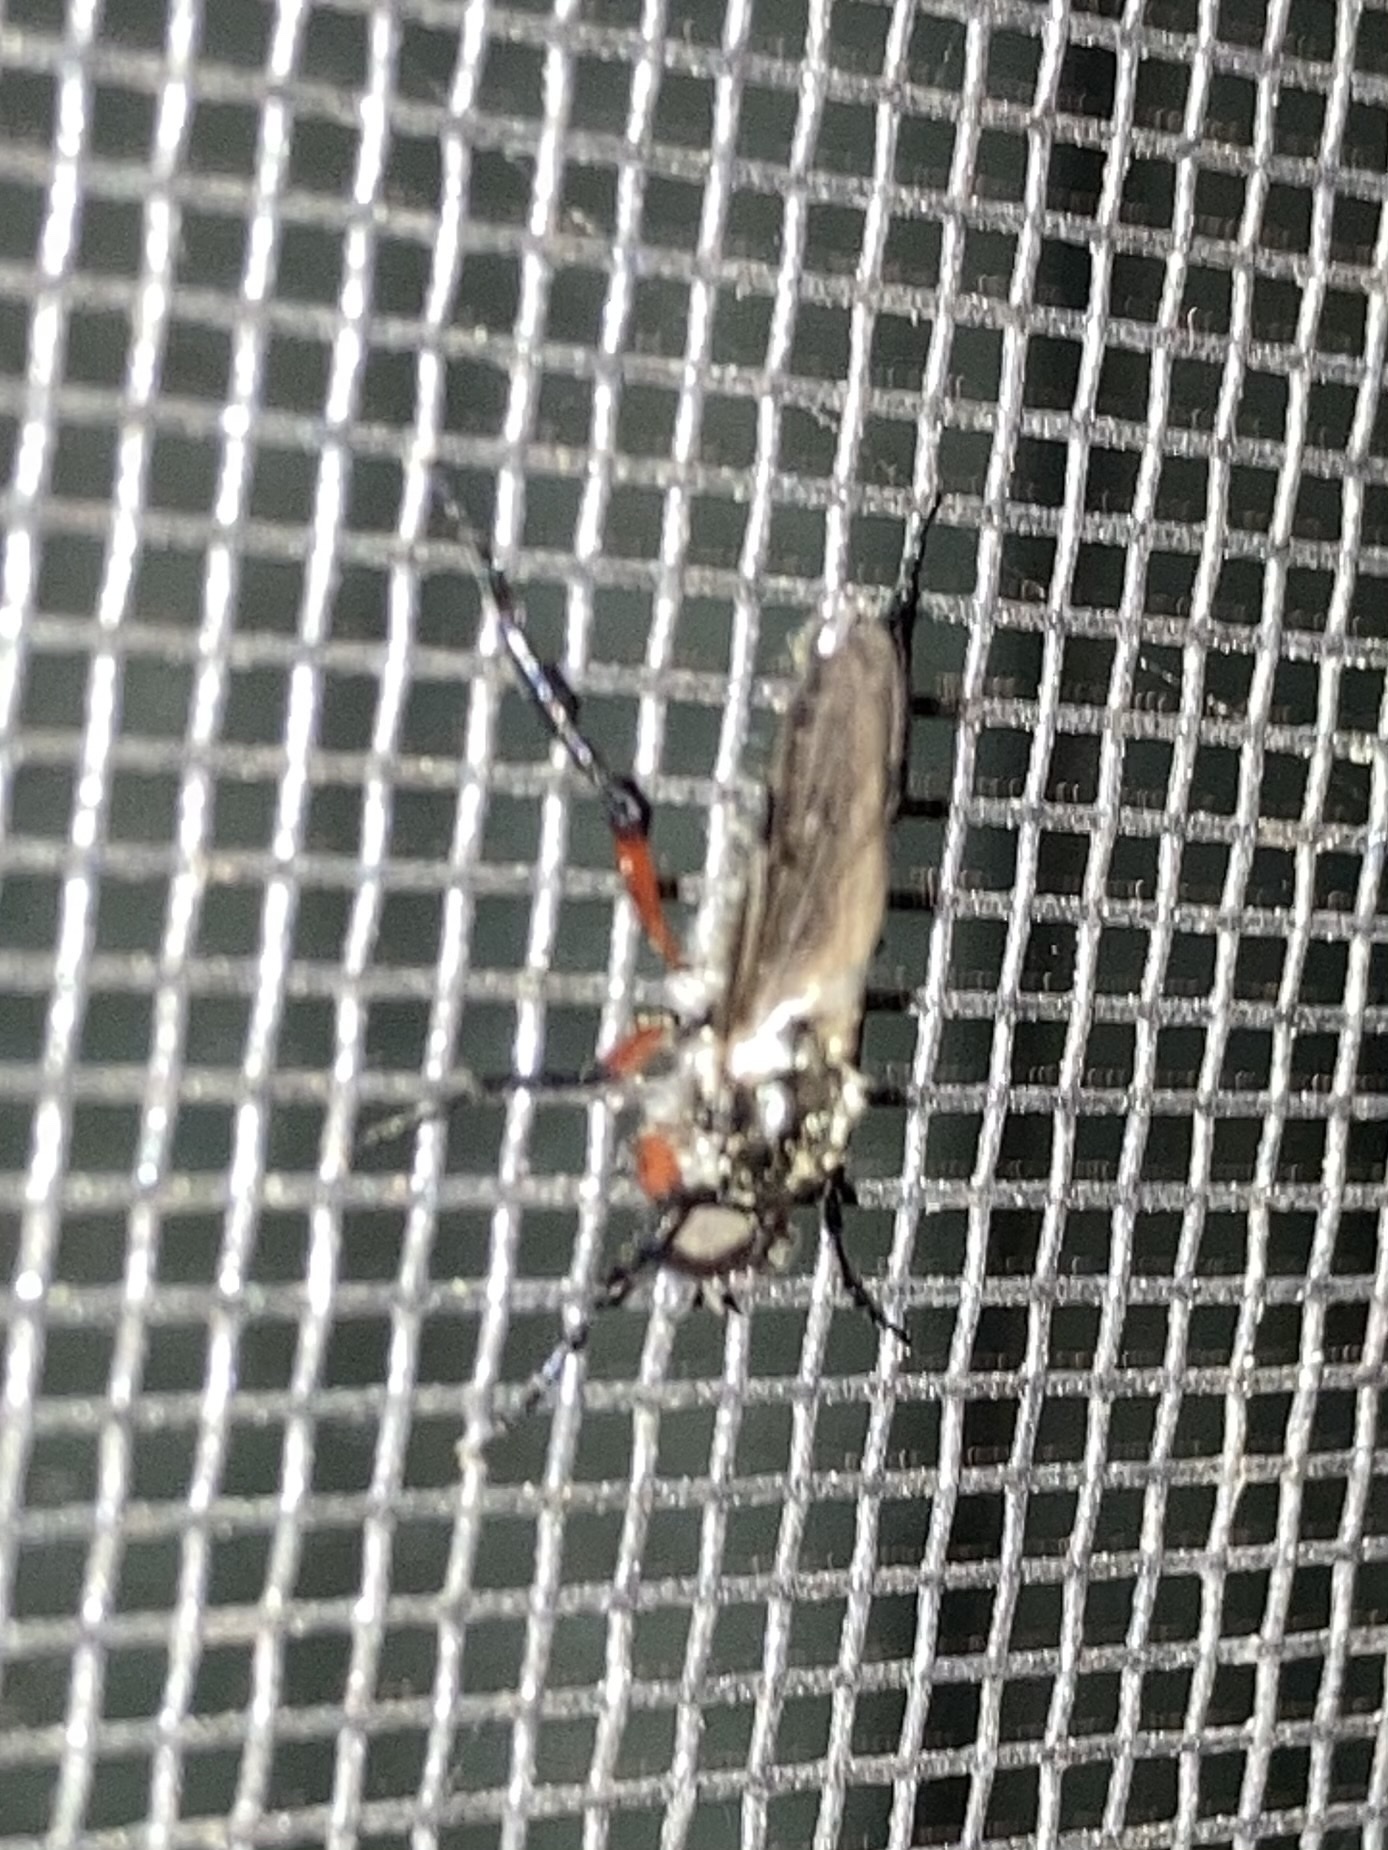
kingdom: Animalia
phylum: Arthropoda
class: Insecta
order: Diptera
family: Bibionidae
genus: Bibio
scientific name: Bibio femoratus
